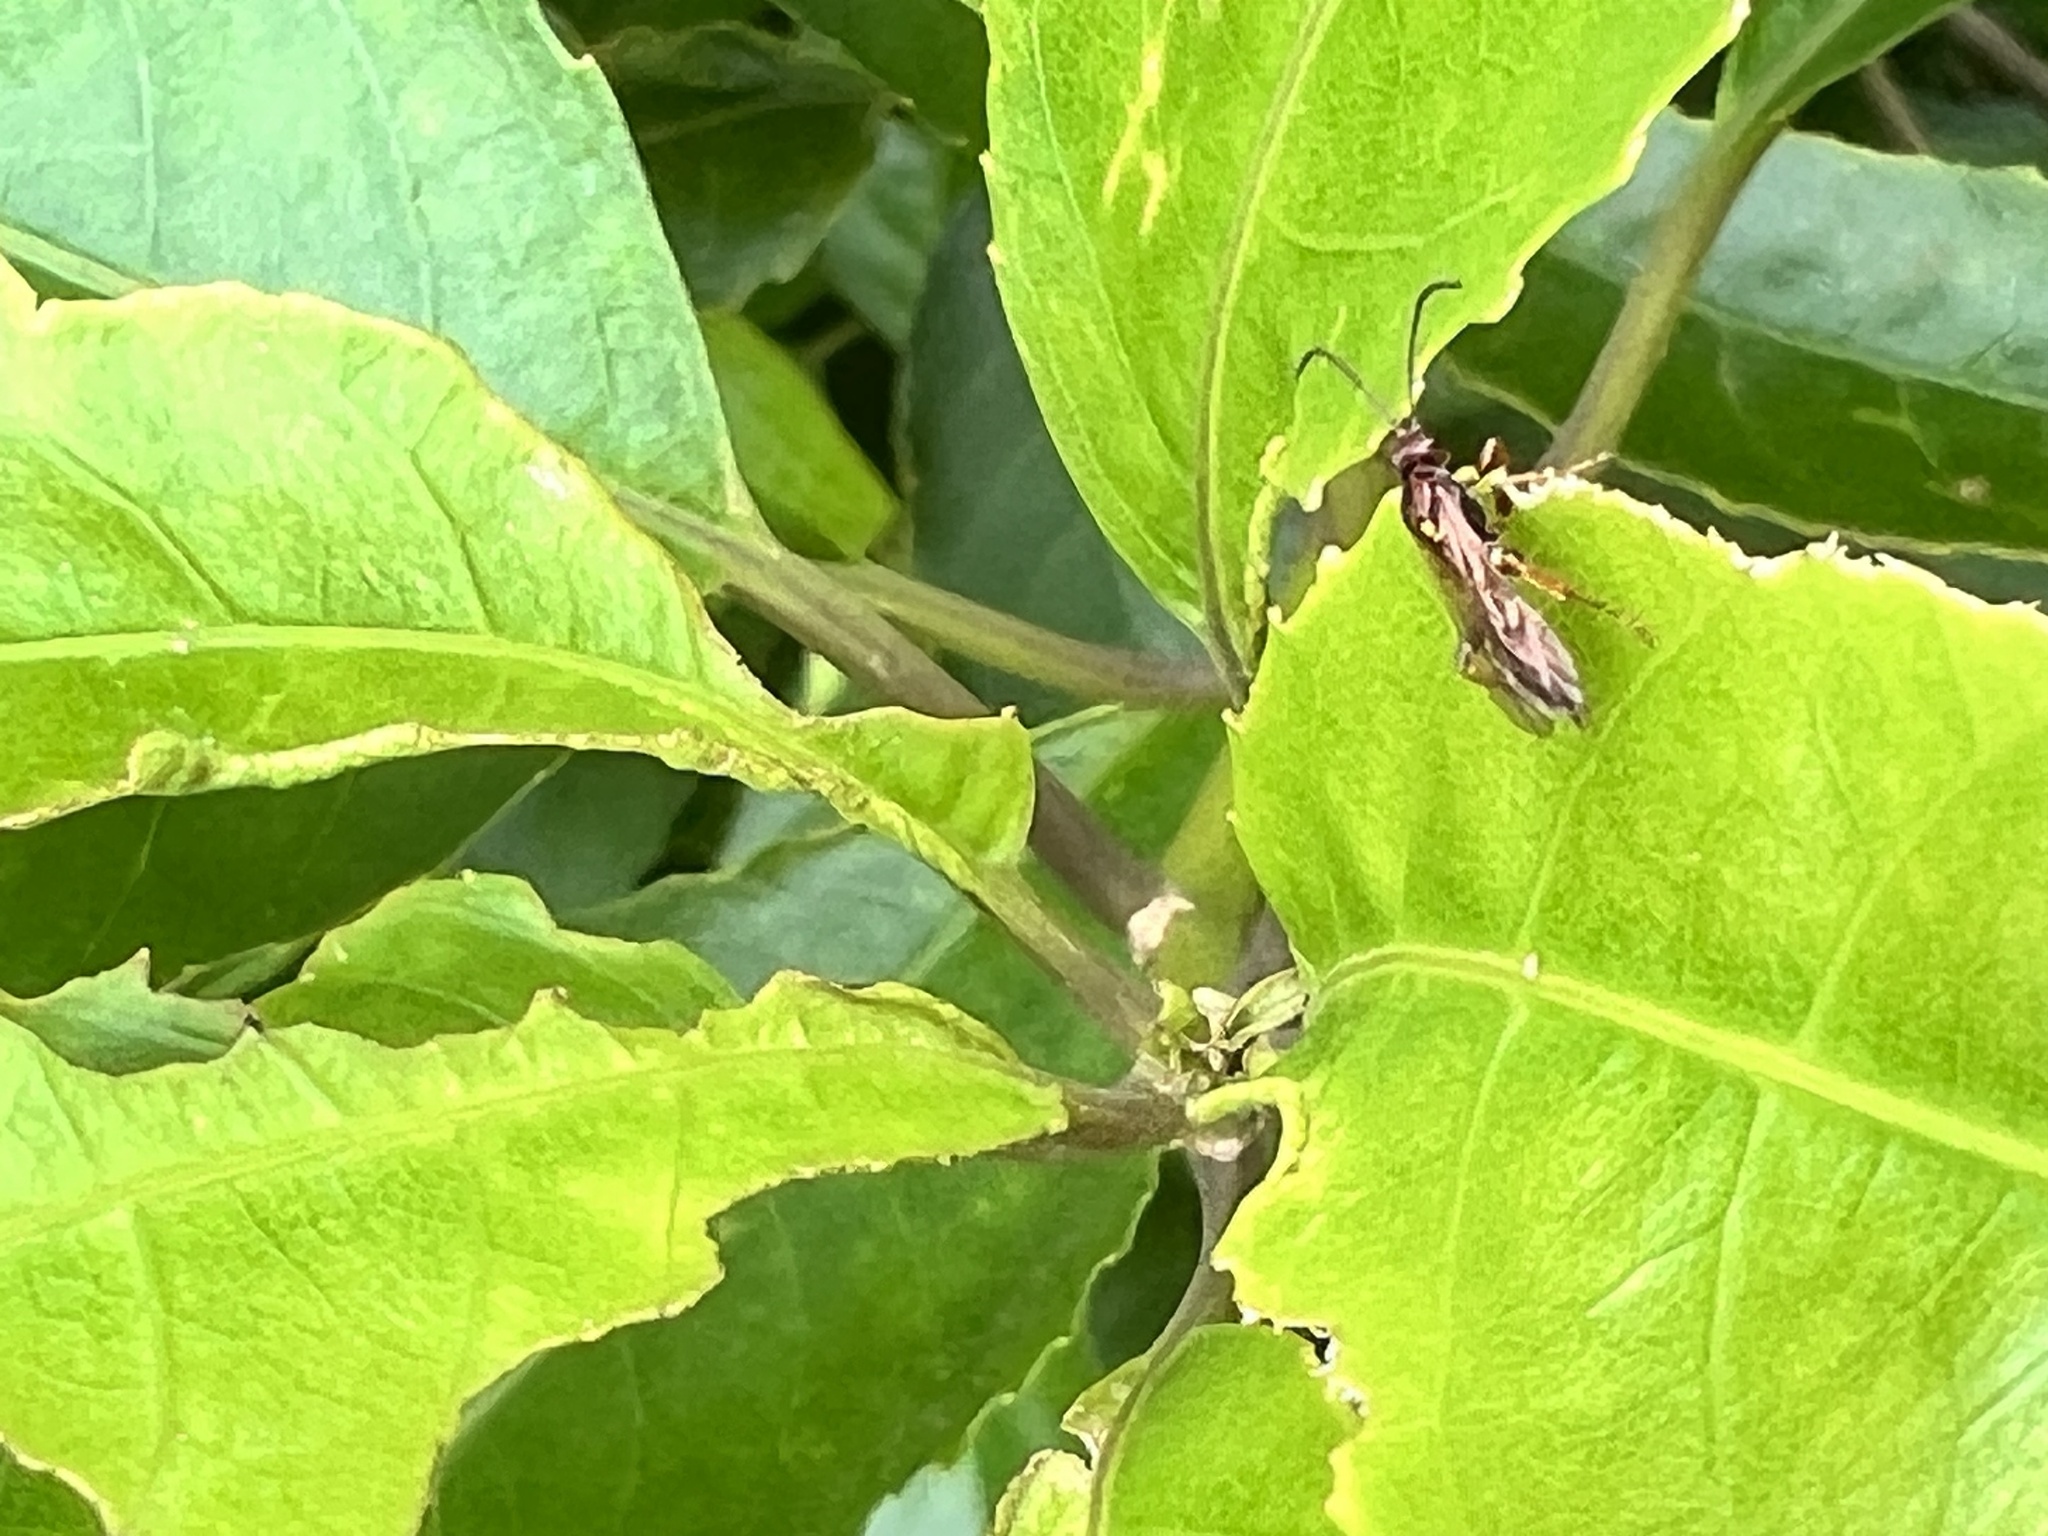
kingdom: Animalia
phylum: Arthropoda
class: Insecta
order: Hymenoptera
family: Ichneumonidae
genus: Aucklandella
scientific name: Aucklandella minuta
